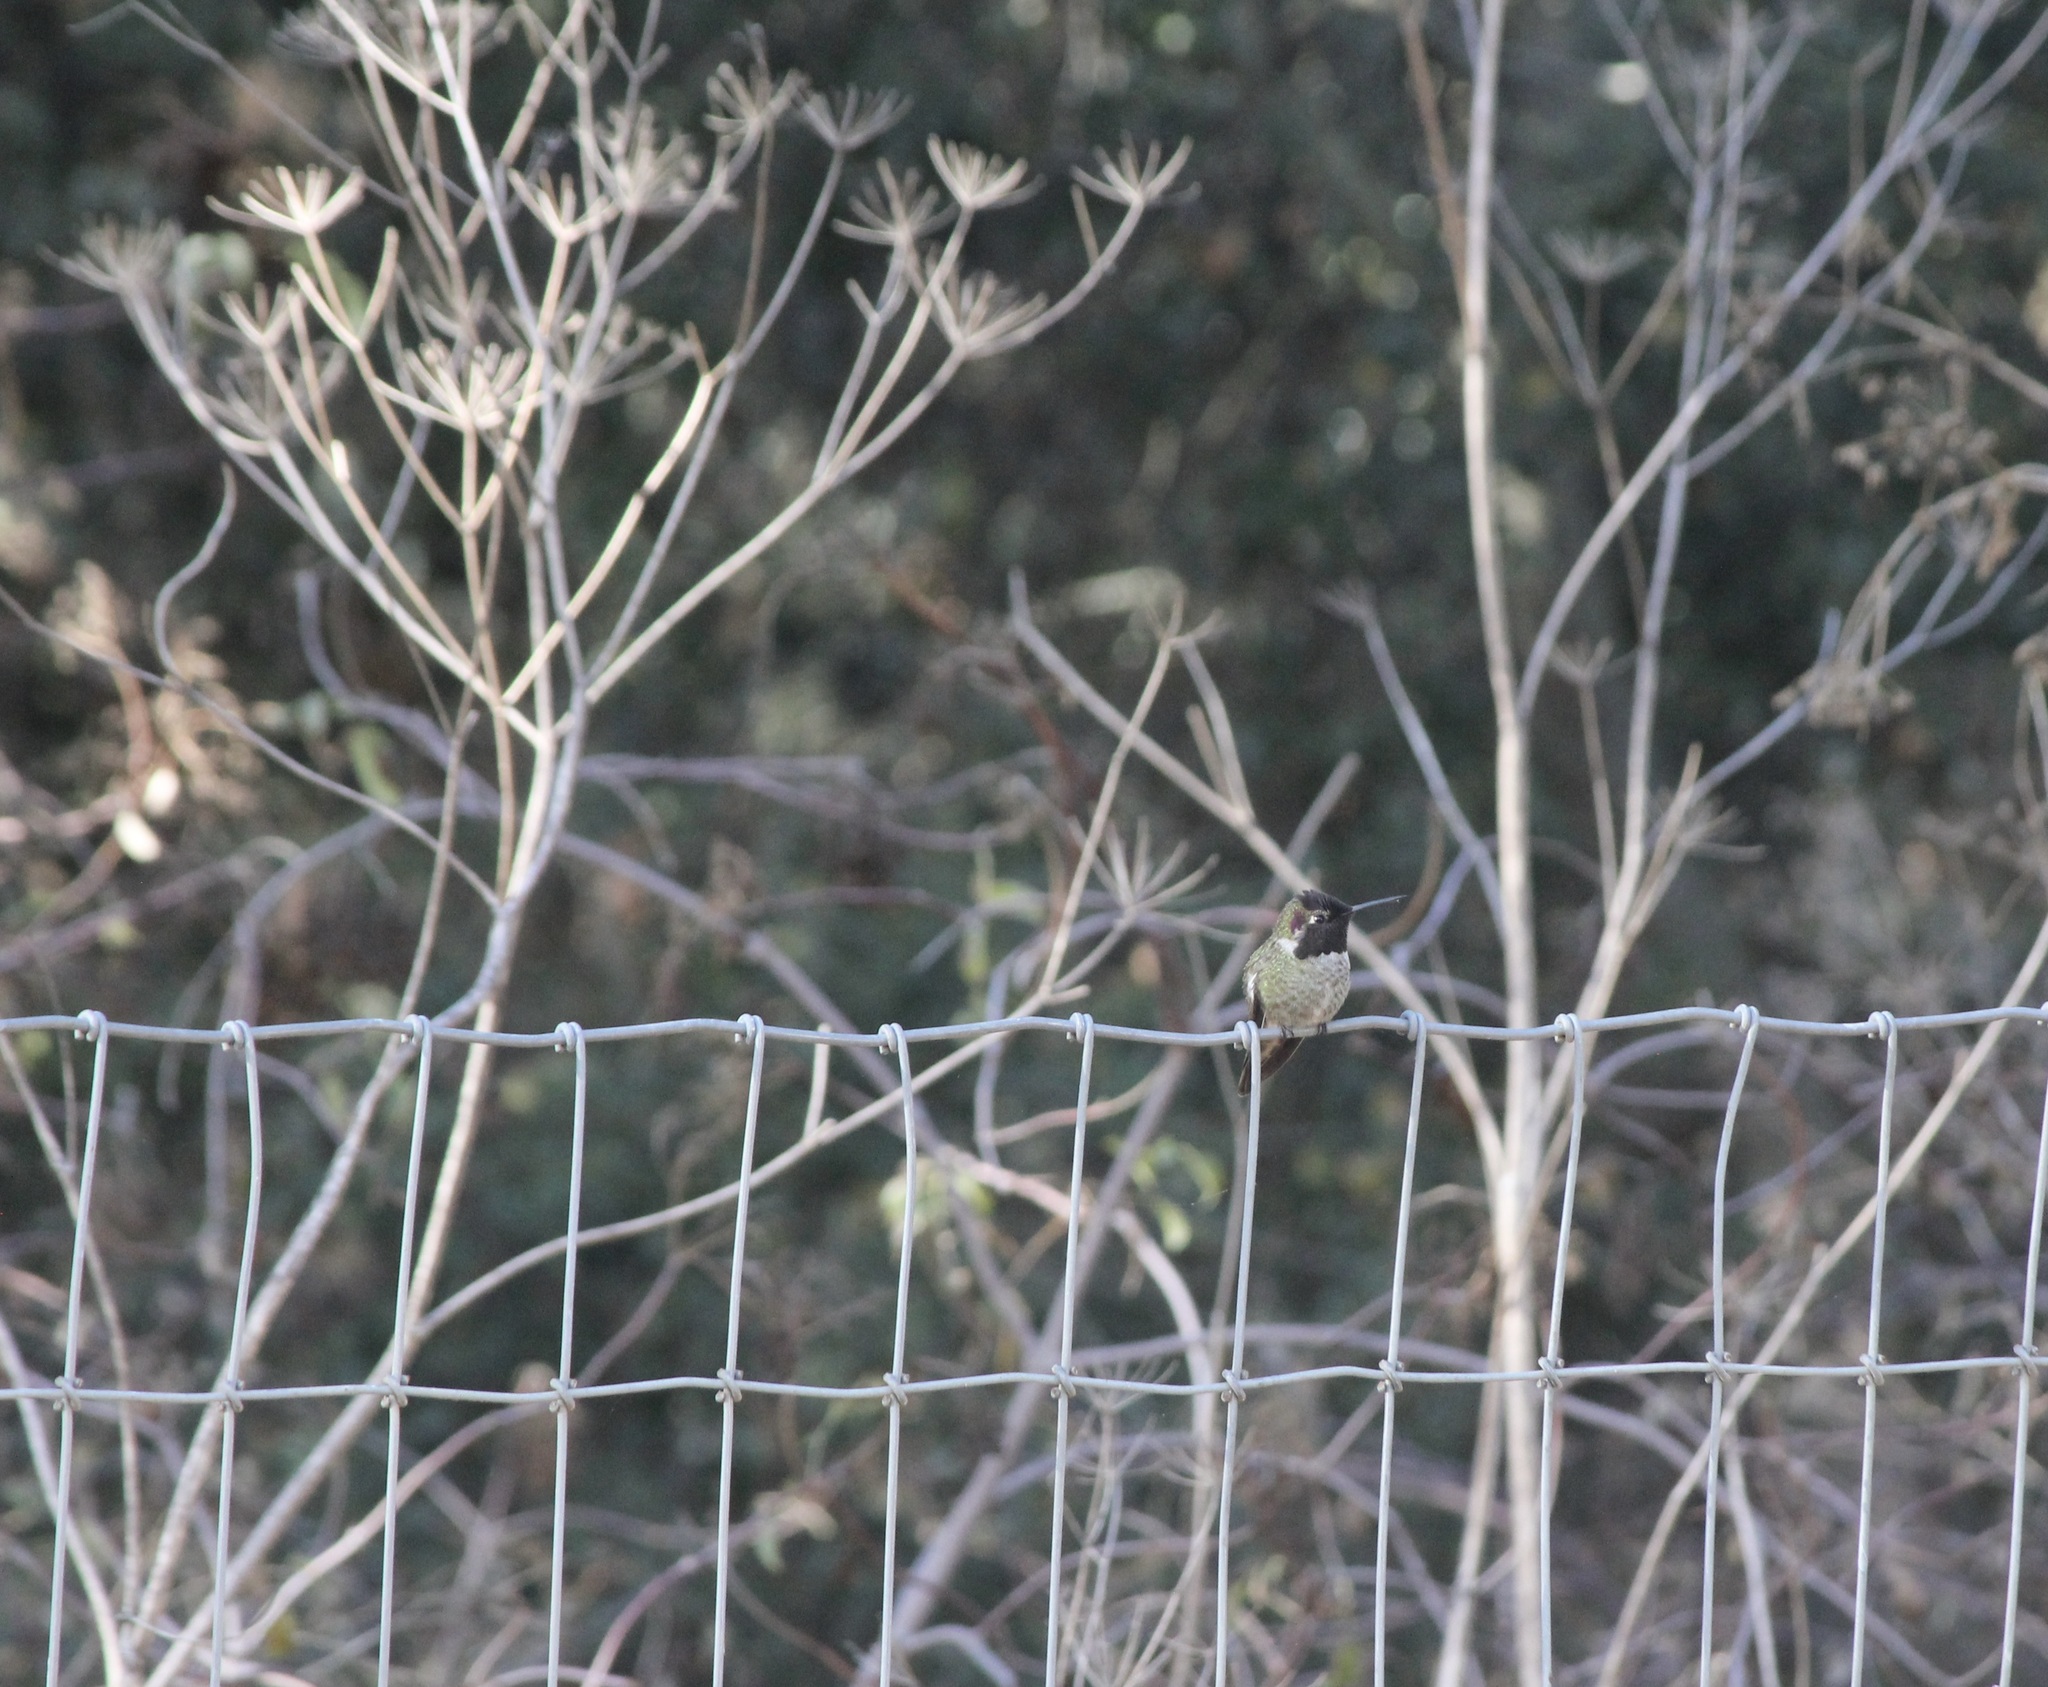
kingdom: Animalia
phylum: Chordata
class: Aves
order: Apodiformes
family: Trochilidae
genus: Calypte
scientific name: Calypte anna
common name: Anna's hummingbird
